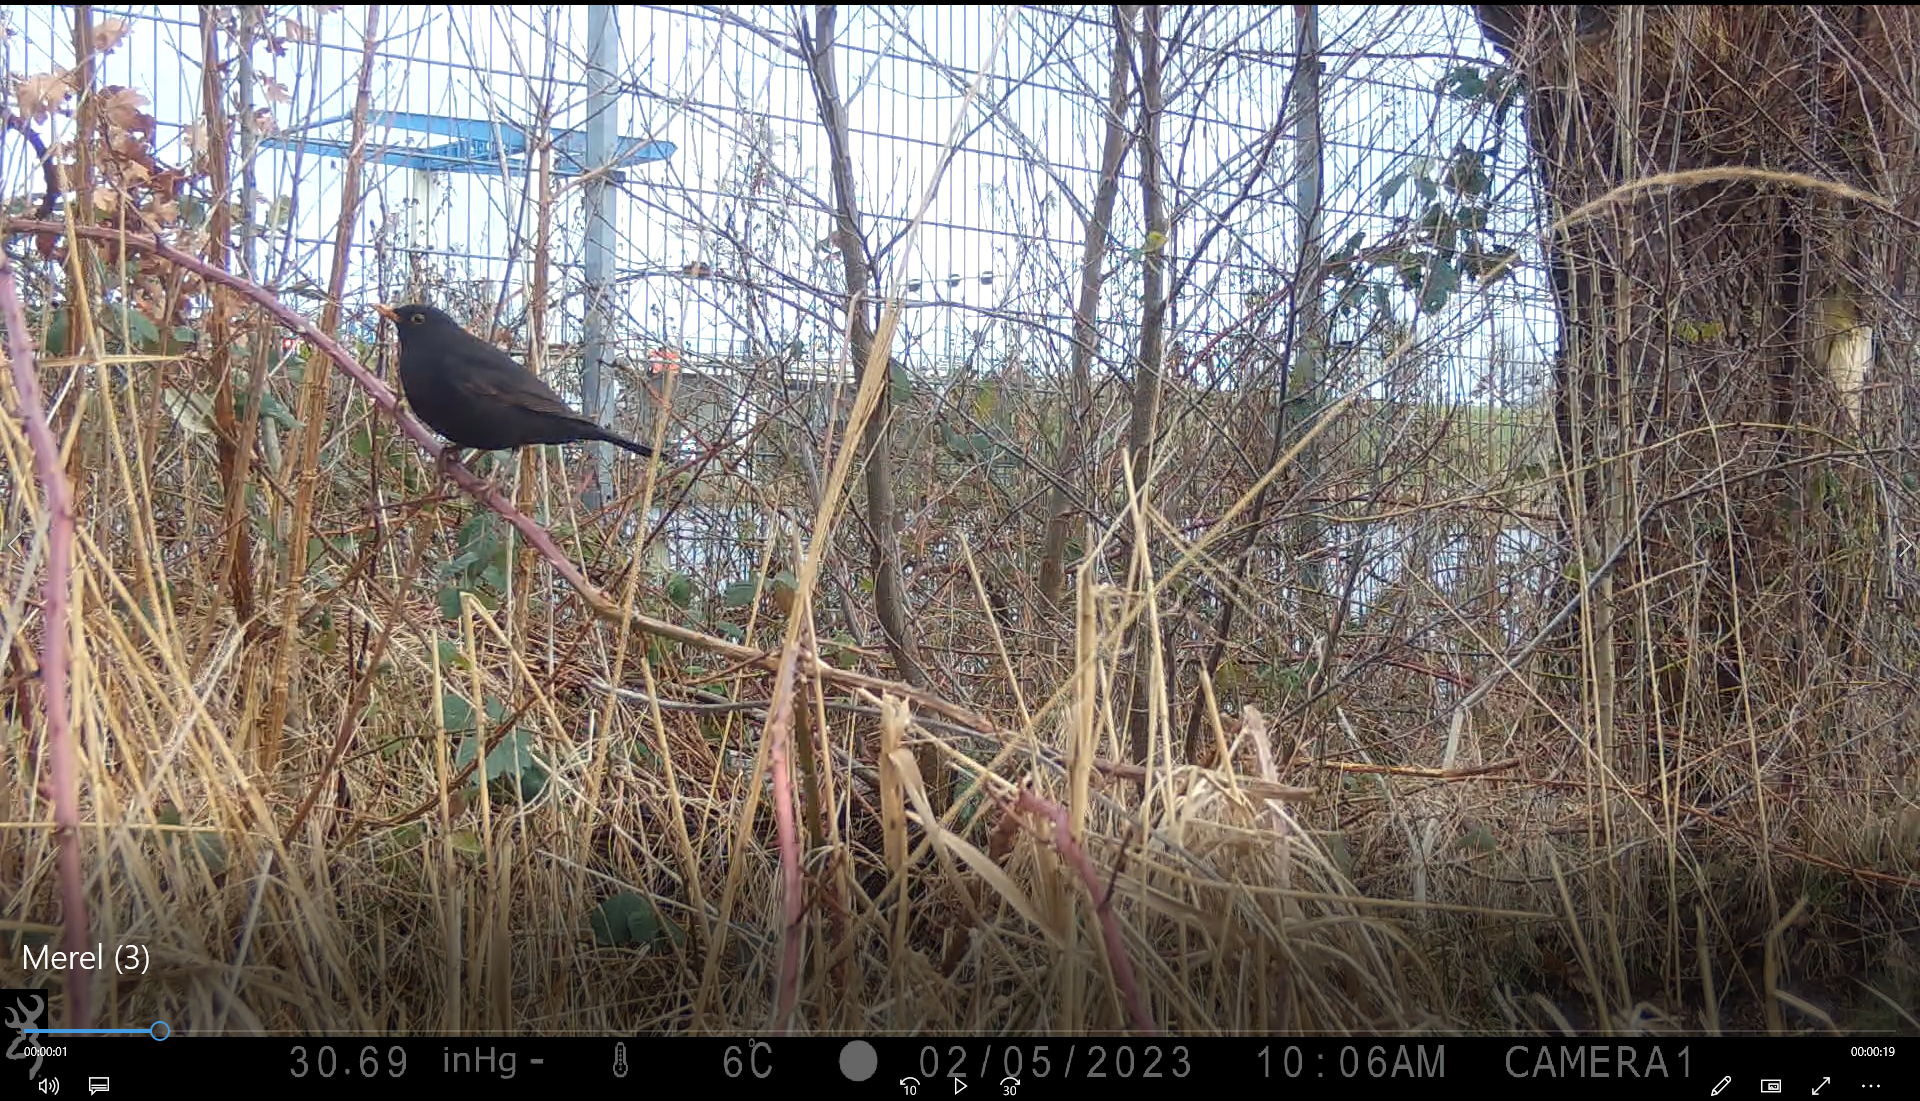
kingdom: Animalia
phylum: Chordata
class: Aves
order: Passeriformes
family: Turdidae
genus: Turdus
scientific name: Turdus merula
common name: Common blackbird
